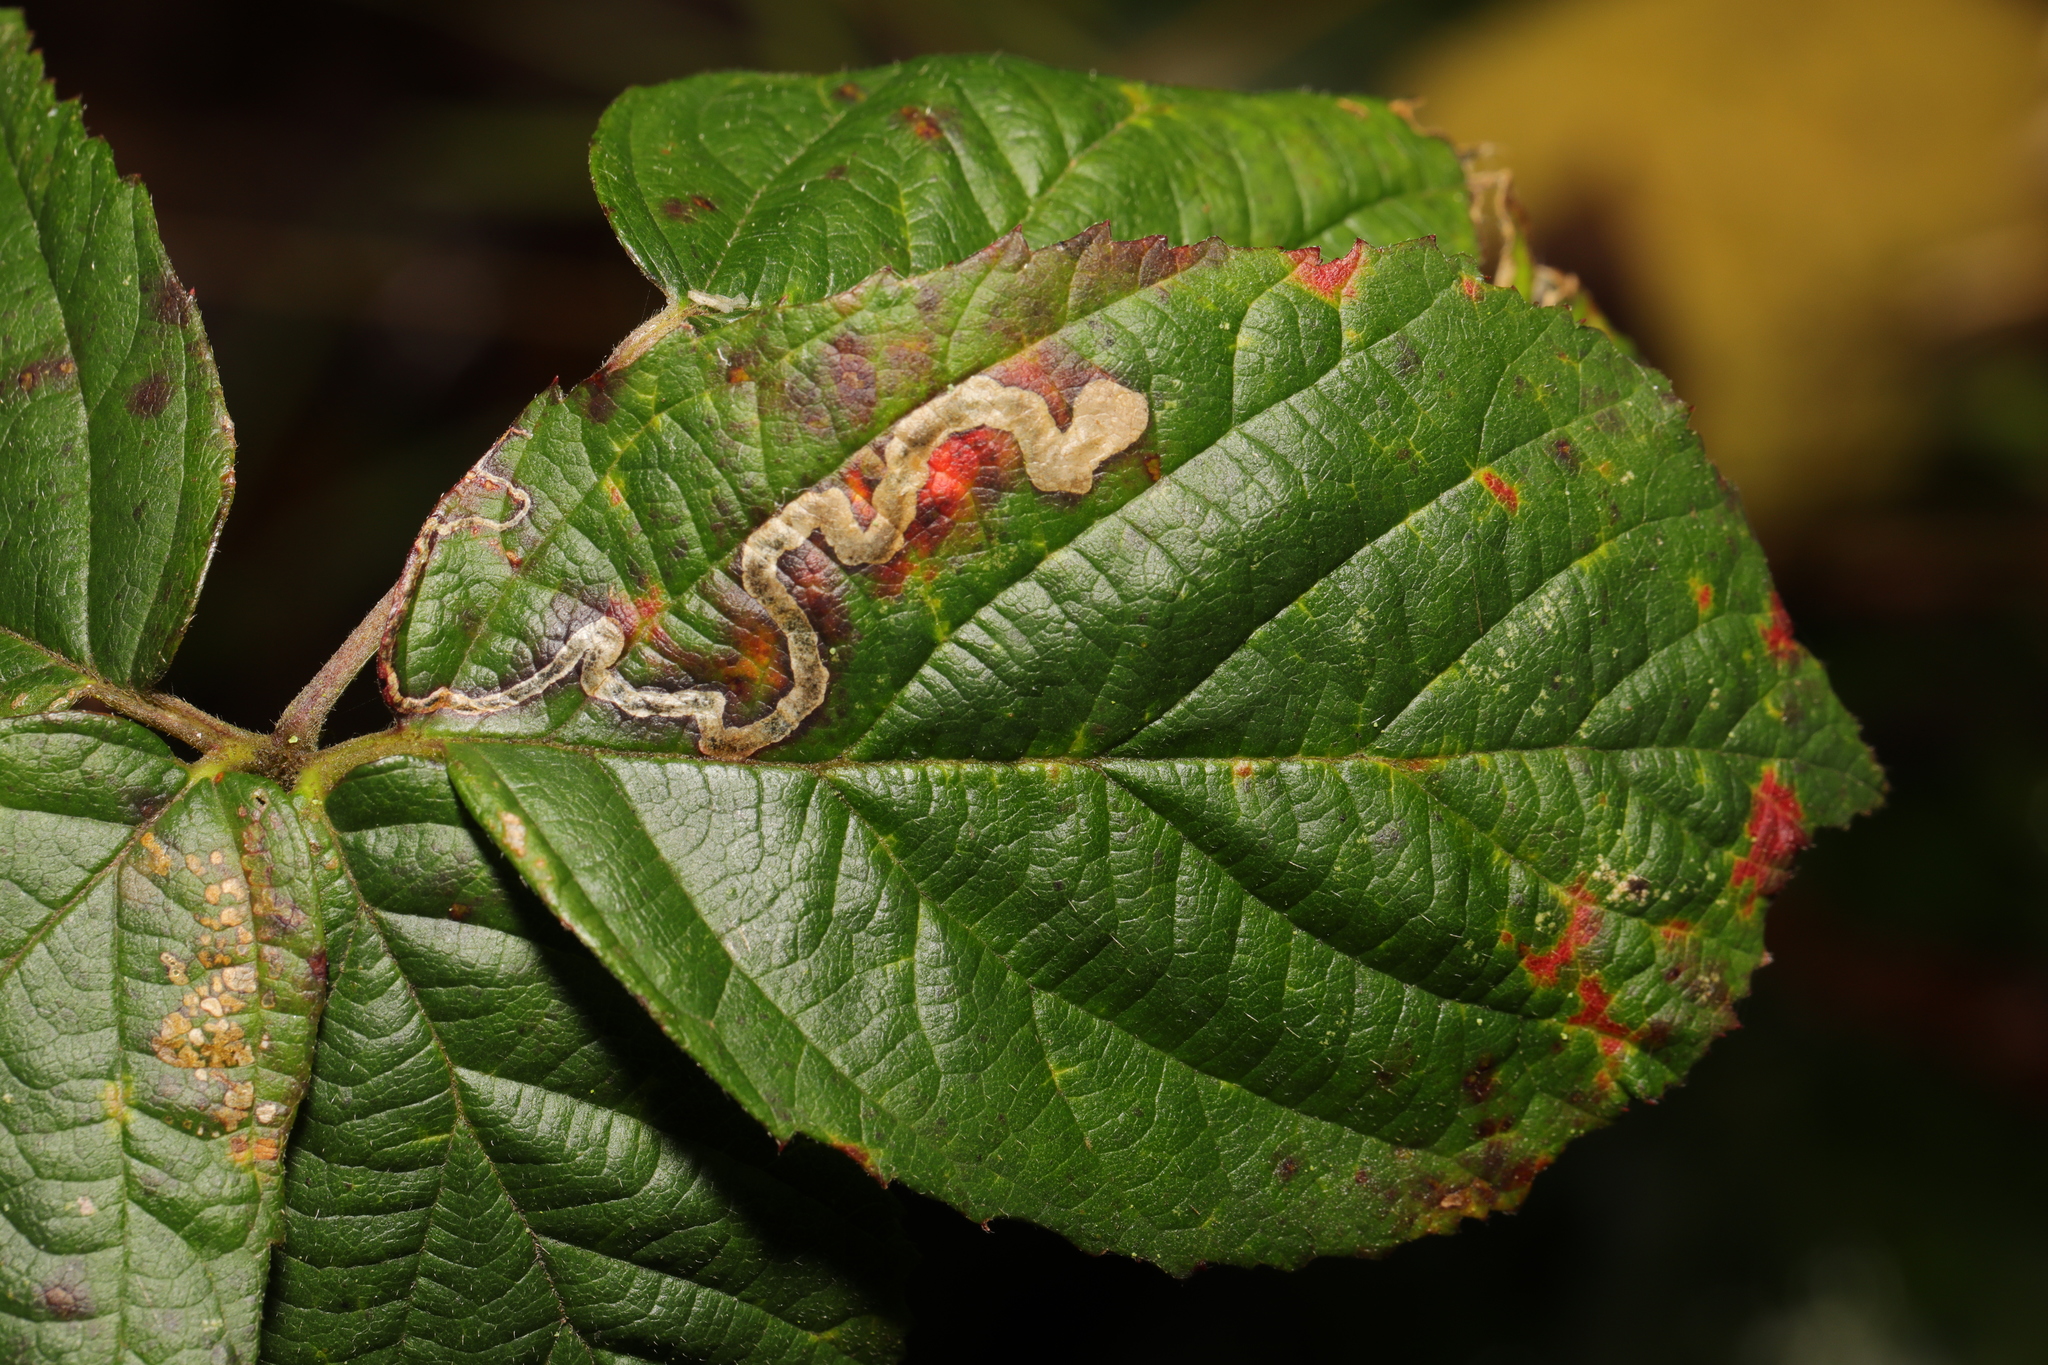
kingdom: Animalia
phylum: Arthropoda
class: Insecta
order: Lepidoptera
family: Nepticulidae
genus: Stigmella
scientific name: Stigmella aurella
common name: Golden pigmy
